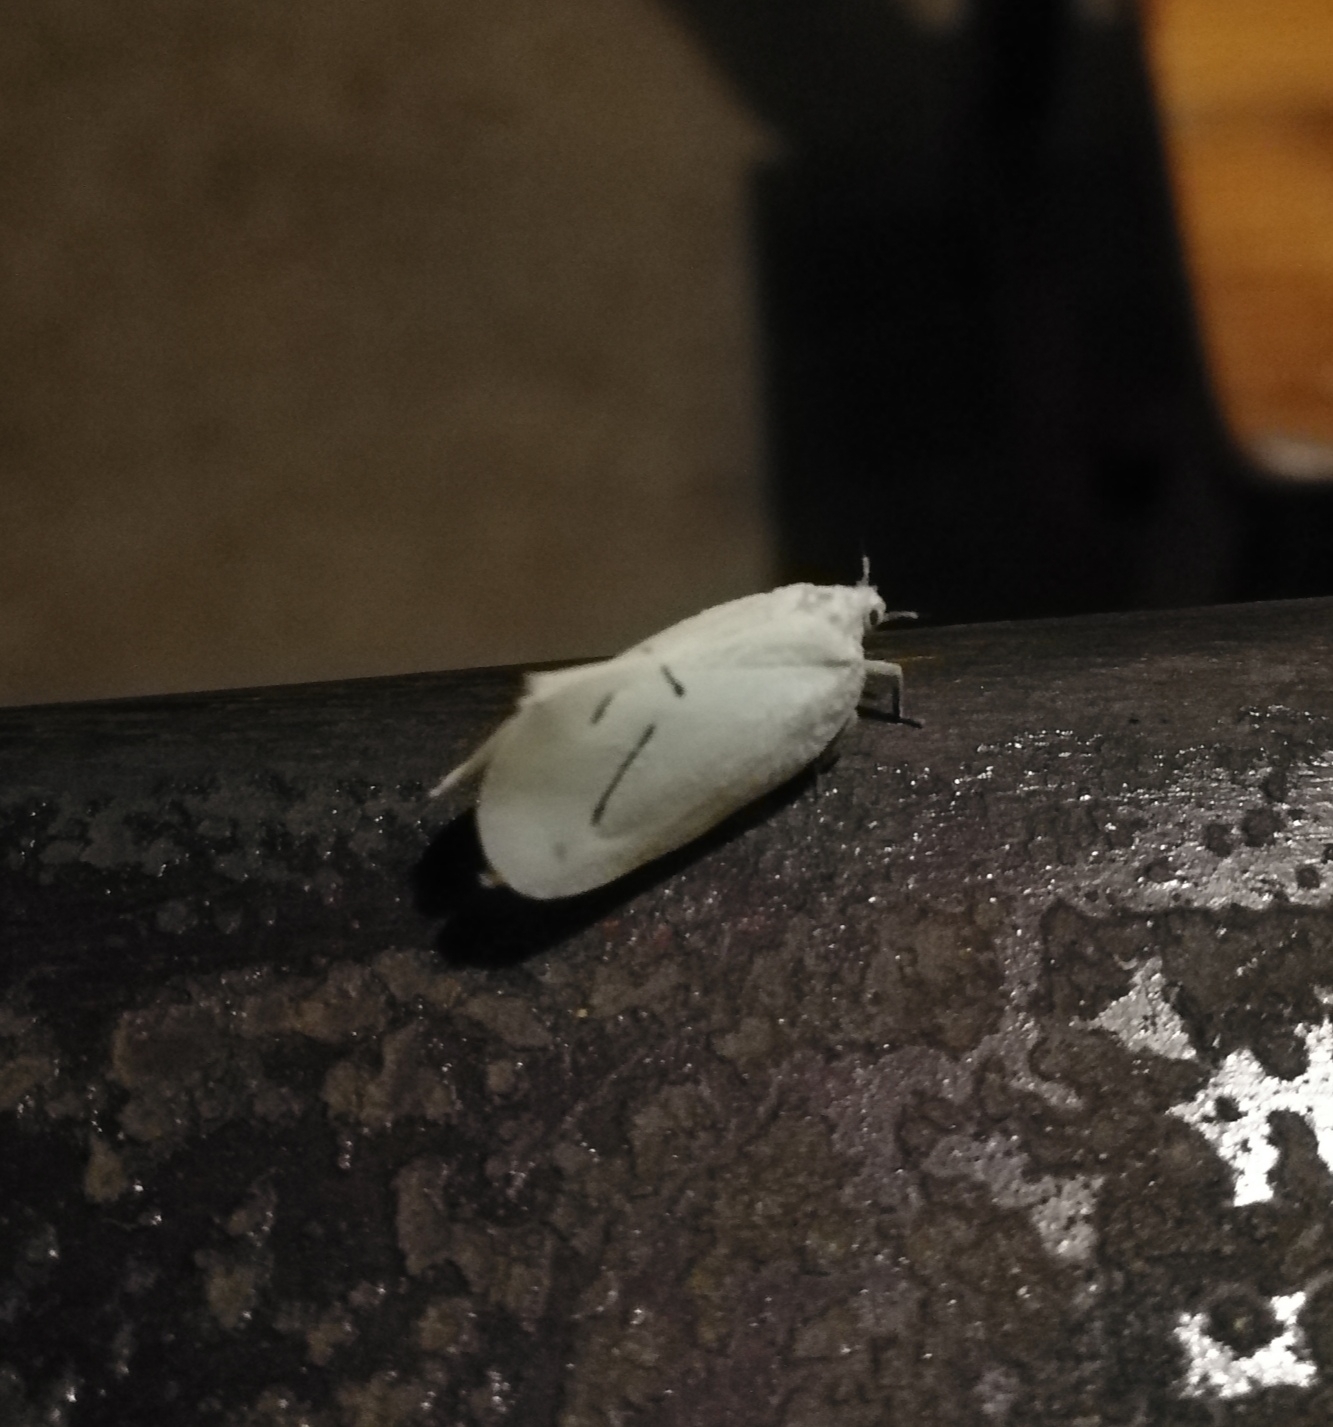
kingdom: Animalia
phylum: Arthropoda
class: Insecta
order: Hemiptera
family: Flatidae
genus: Cerynia
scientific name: Cerynia maria
